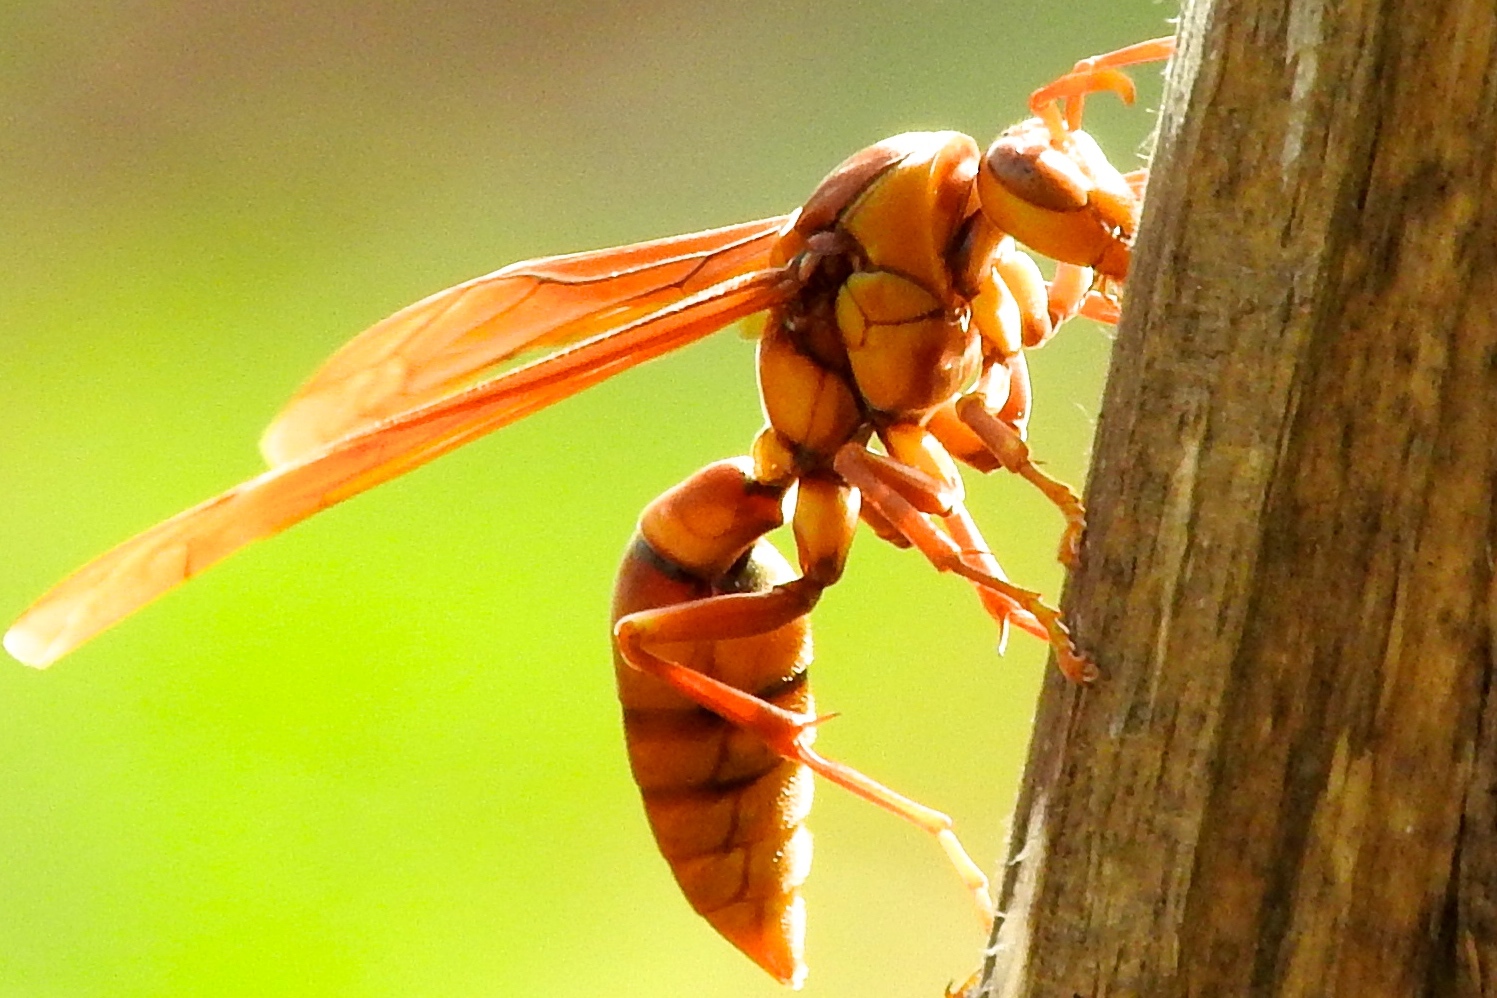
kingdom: Animalia
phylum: Arthropoda
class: Insecta
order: Hymenoptera
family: Eumenidae
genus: Polistes
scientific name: Polistes carnifex
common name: Paper wasp
